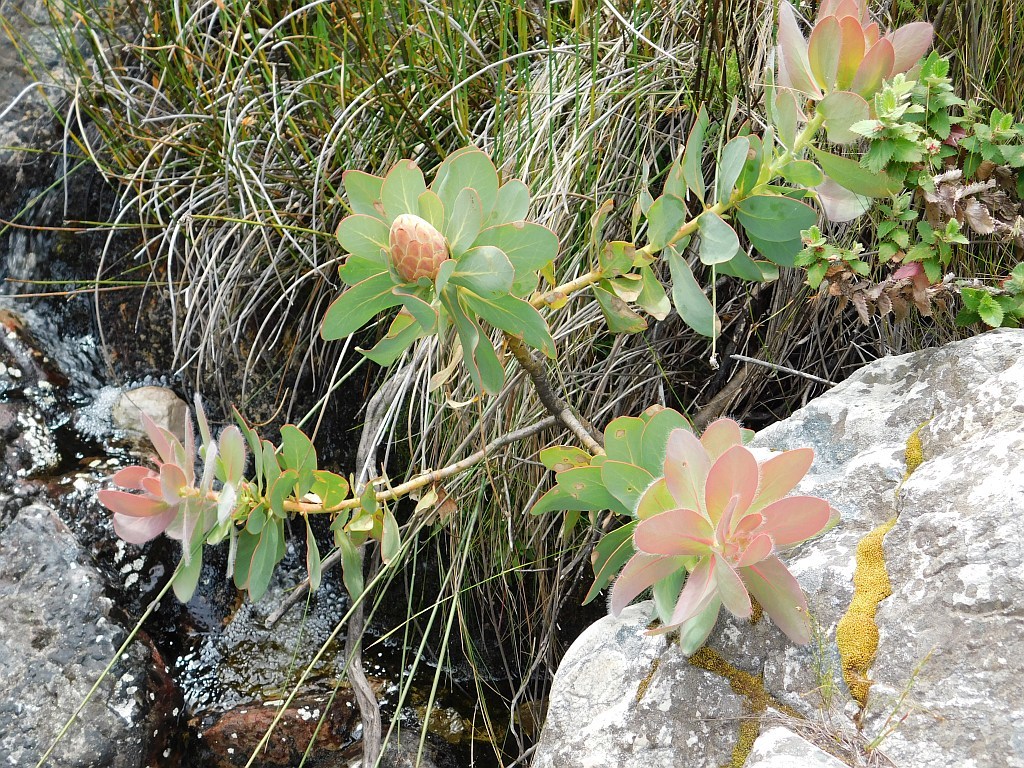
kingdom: Plantae
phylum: Tracheophyta
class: Magnoliopsida
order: Proteales
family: Proteaceae
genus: Protea
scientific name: Protea grandiceps
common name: Red sugarbush
